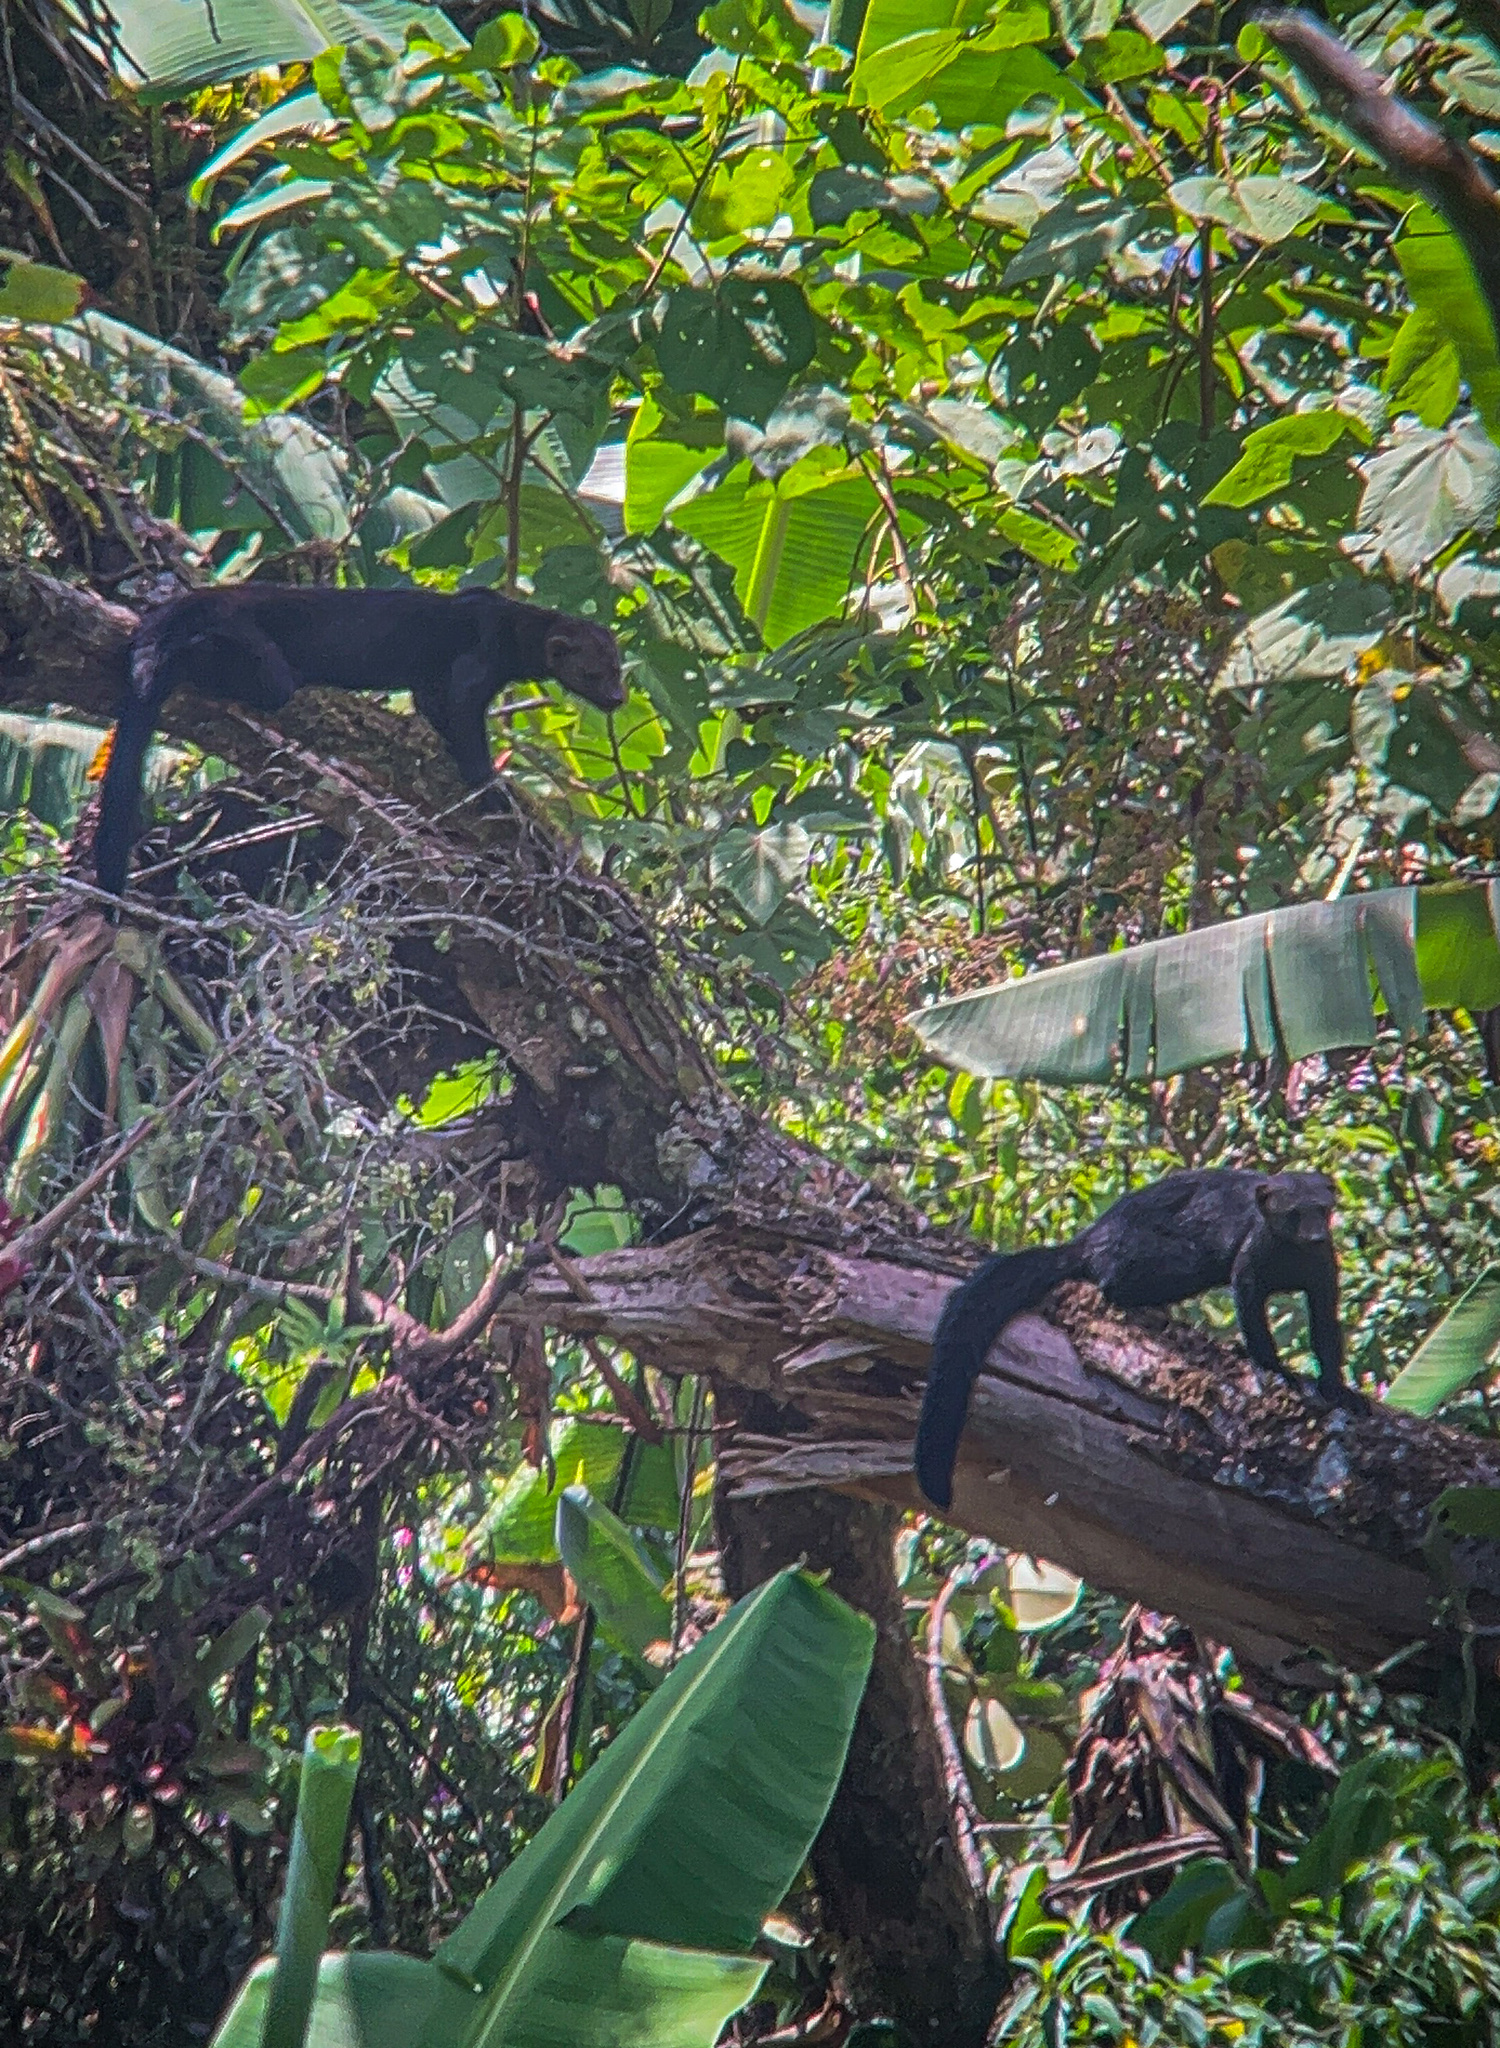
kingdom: Animalia
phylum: Chordata
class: Mammalia
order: Carnivora
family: Mustelidae
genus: Eira
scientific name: Eira barbara
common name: Tayra
